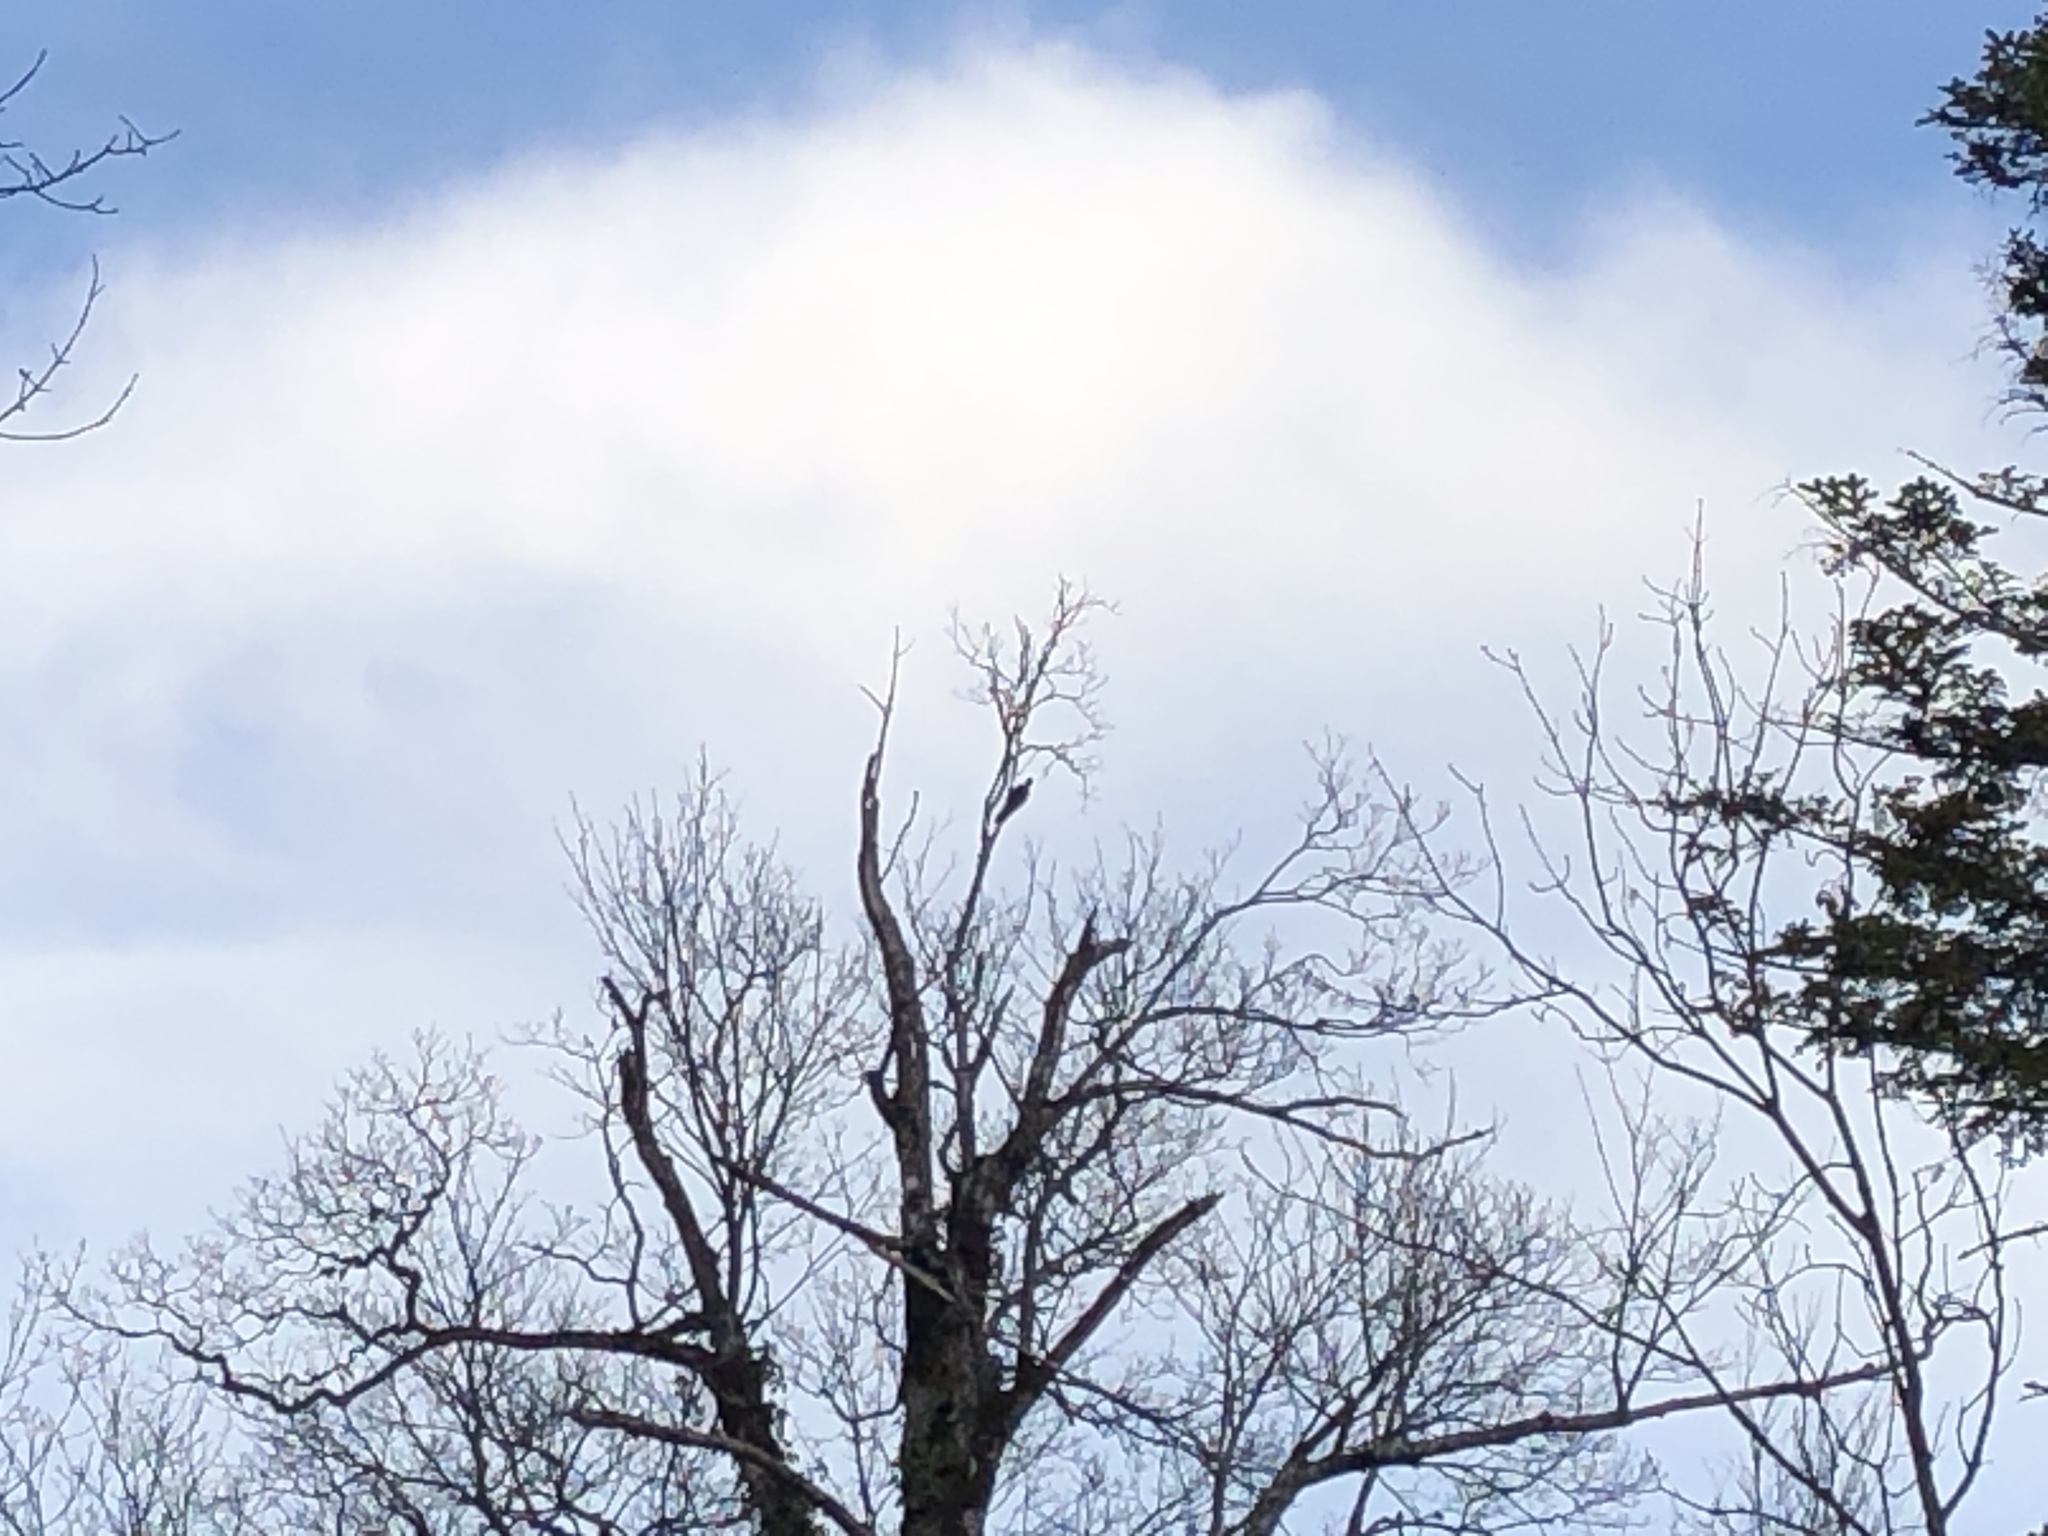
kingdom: Animalia
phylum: Chordata
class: Aves
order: Piciformes
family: Picidae
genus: Dryocopus
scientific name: Dryocopus martius
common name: Black woodpecker
